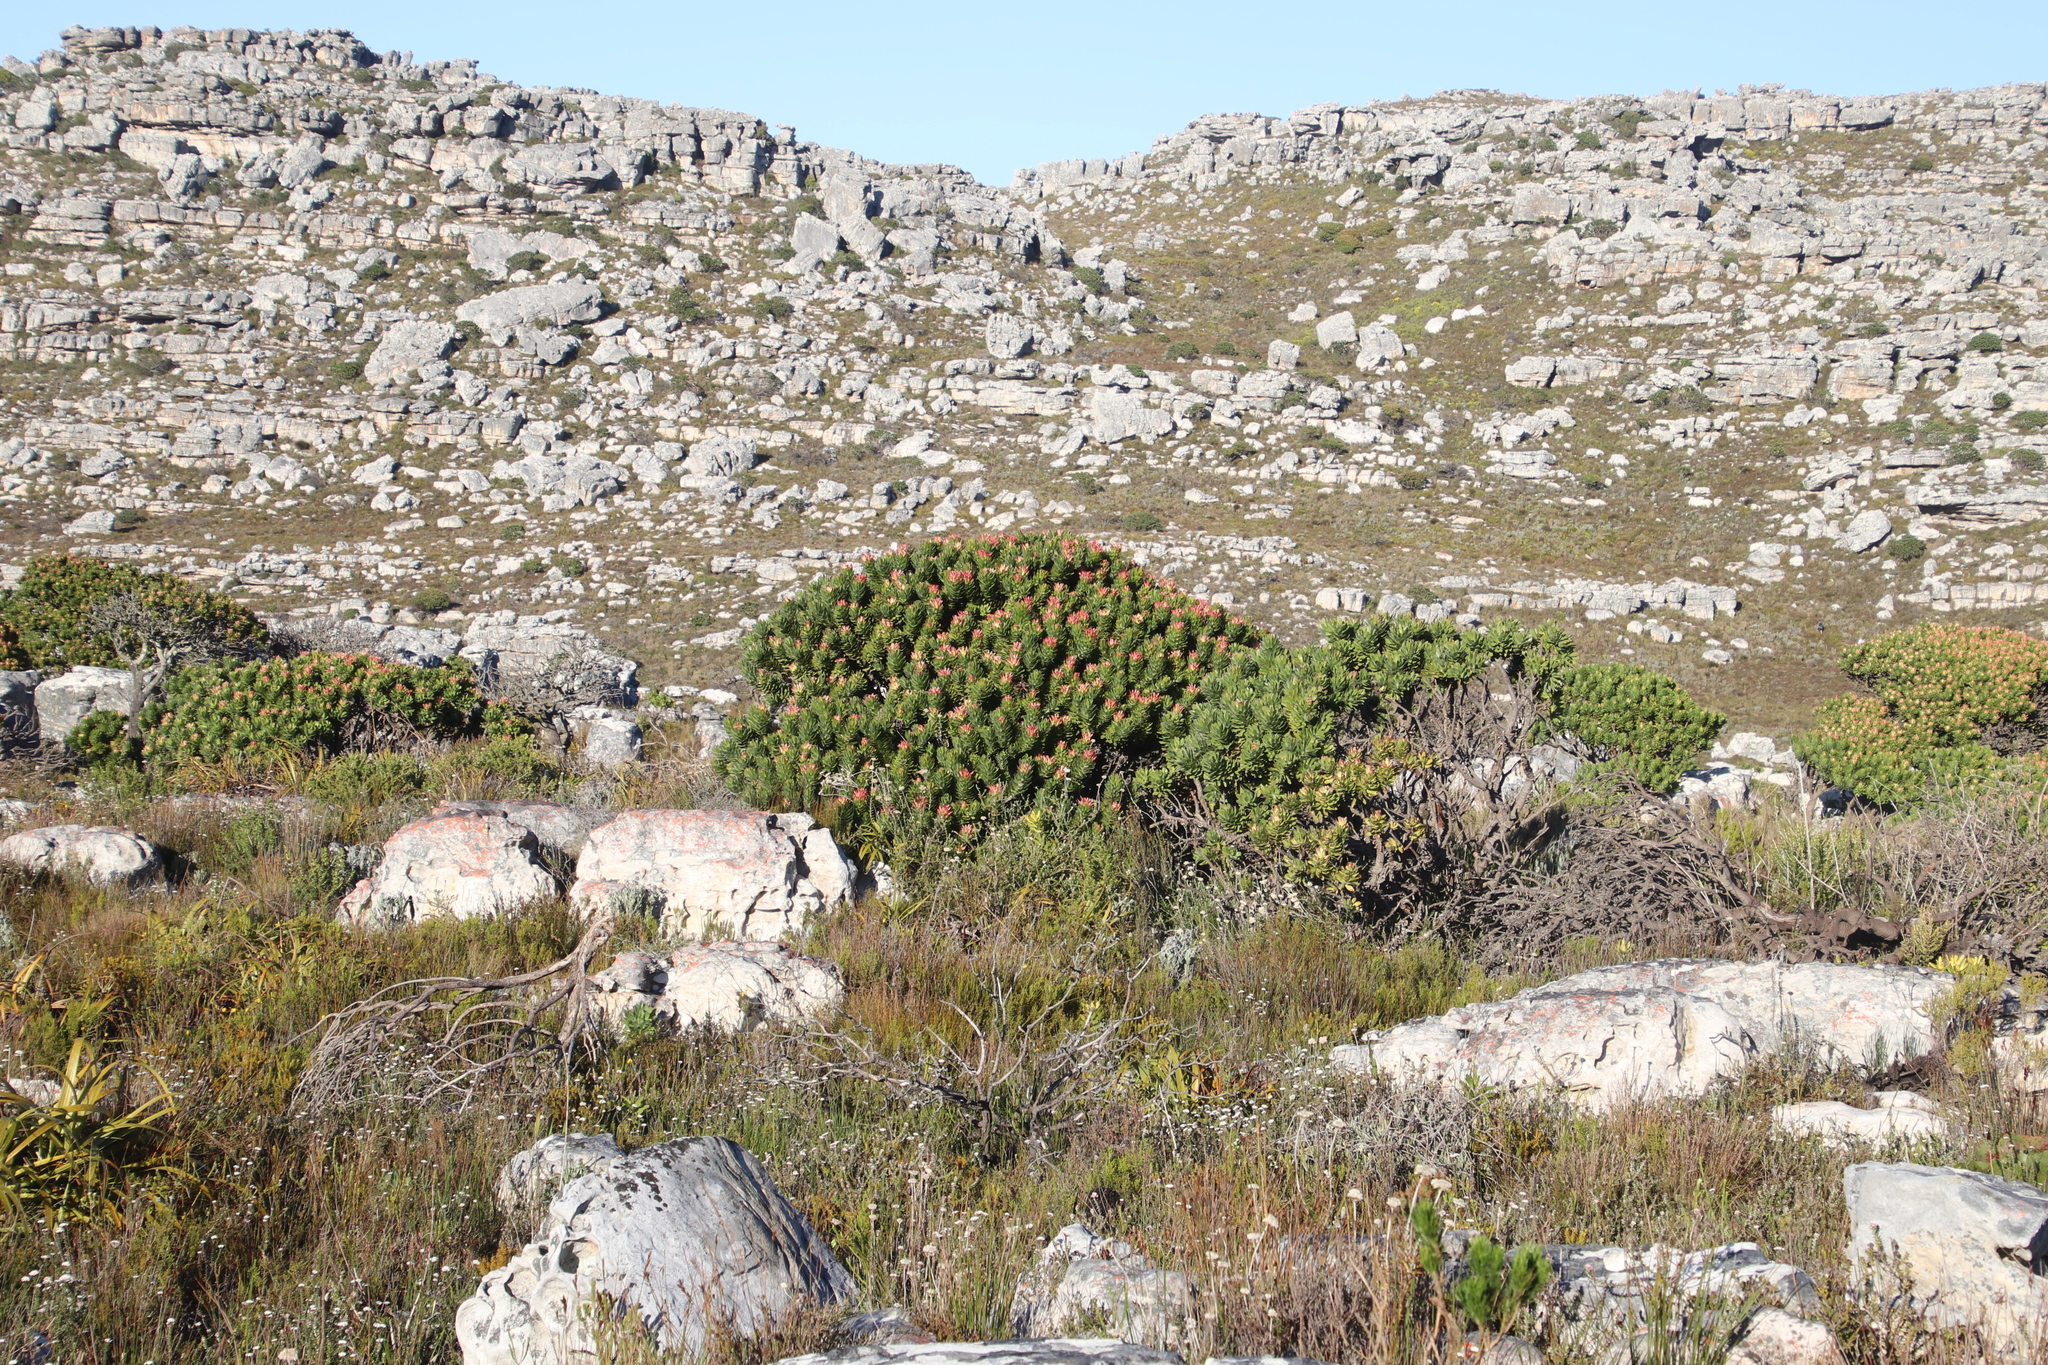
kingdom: Plantae
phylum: Tracheophyta
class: Magnoliopsida
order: Proteales
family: Proteaceae
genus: Mimetes
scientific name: Mimetes fimbriifolius
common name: Fringed bottlebrush
